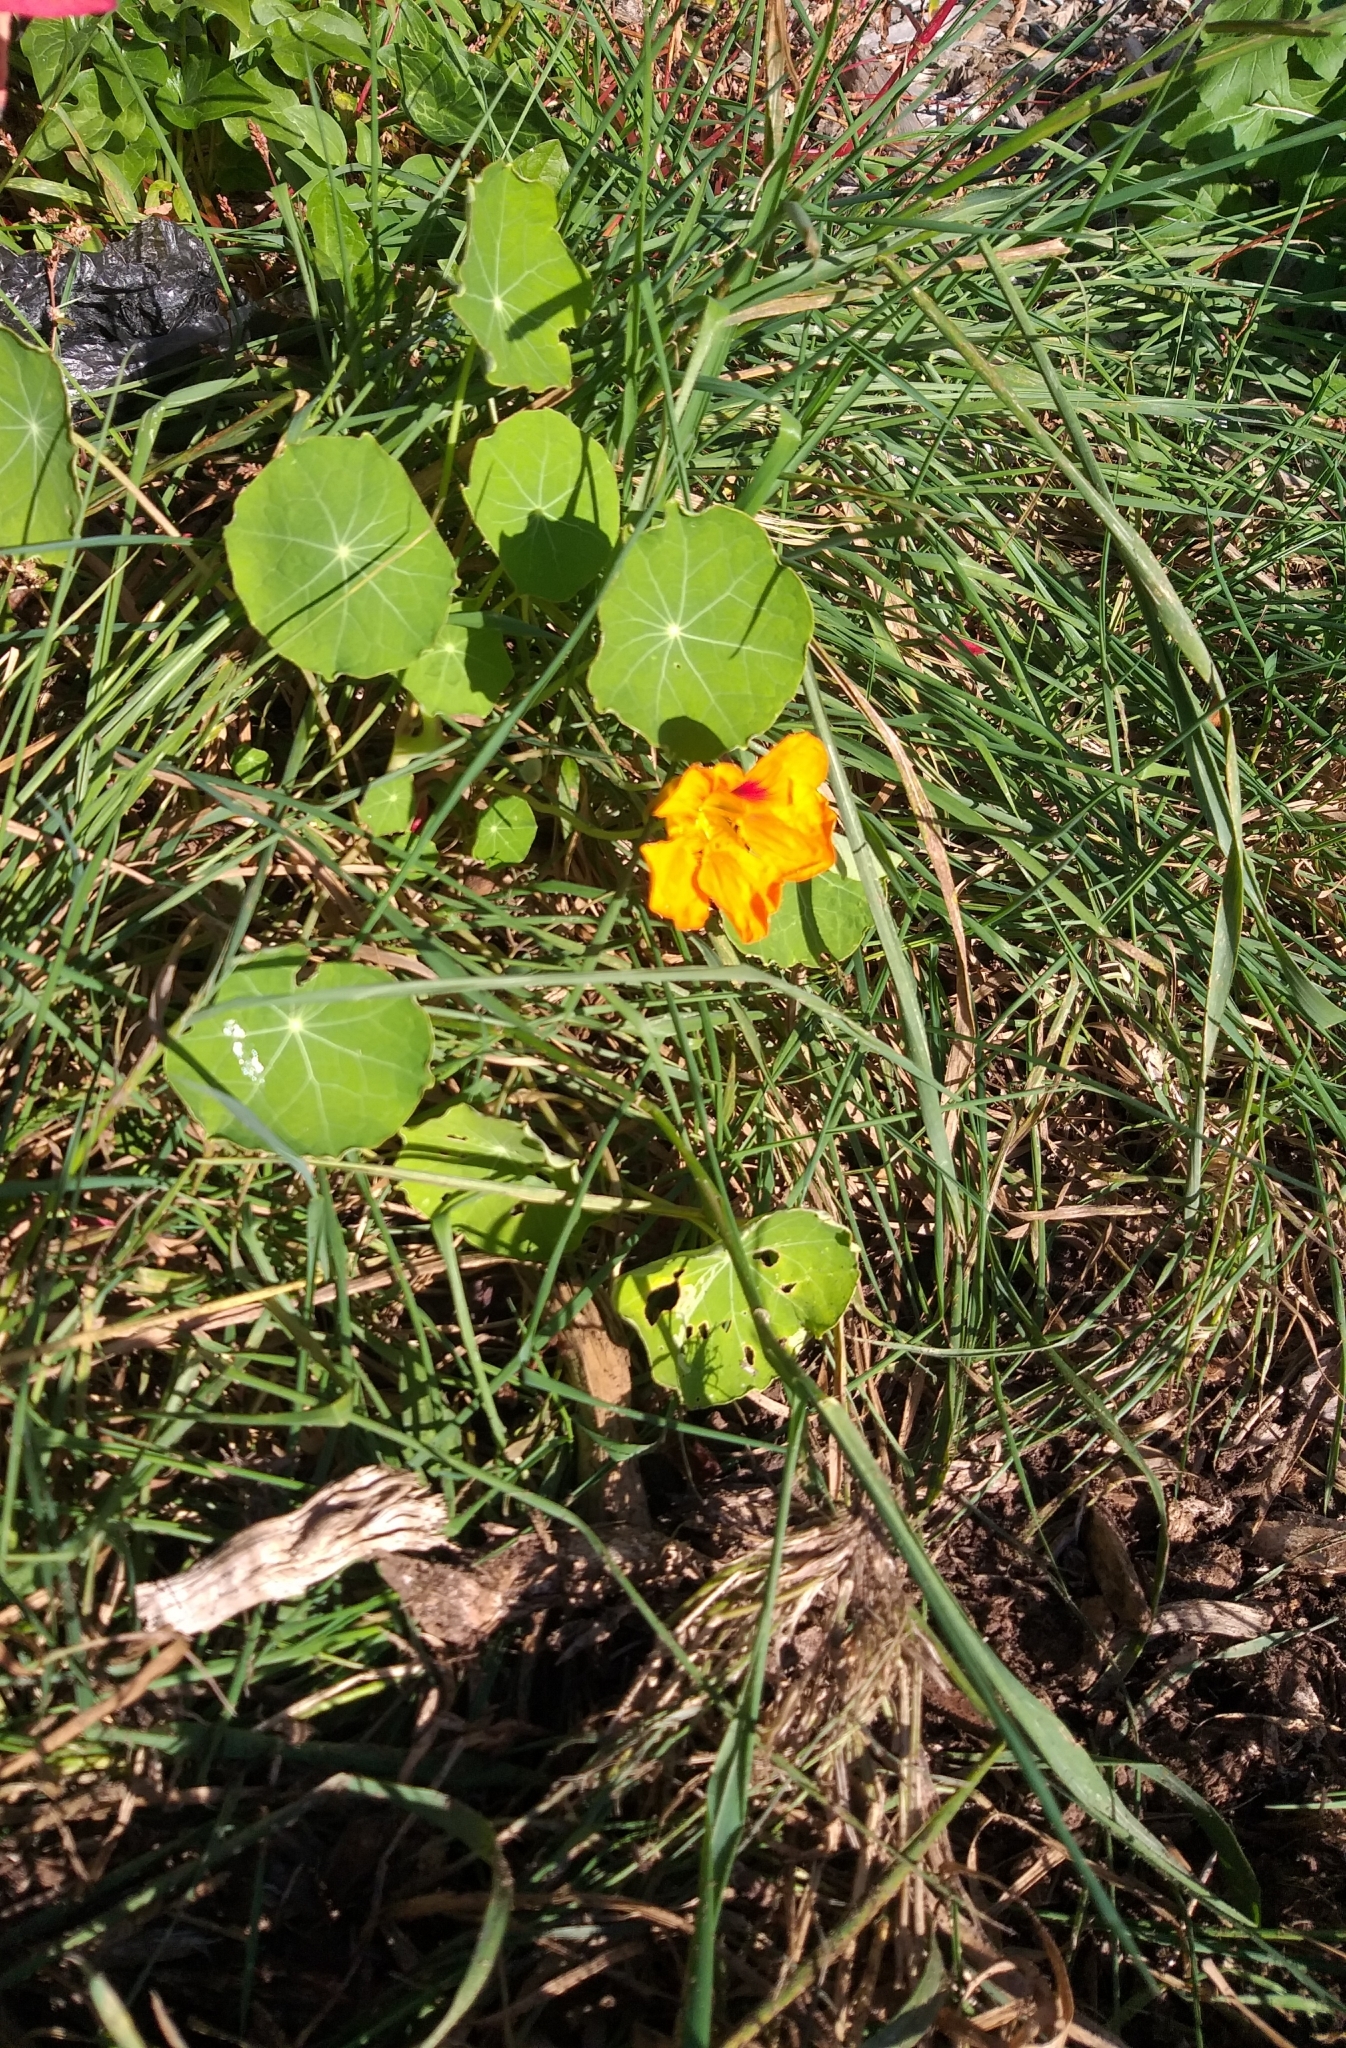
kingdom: Plantae
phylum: Tracheophyta
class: Magnoliopsida
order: Brassicales
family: Tropaeolaceae
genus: Tropaeolum
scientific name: Tropaeolum majus
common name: Nasturtium
